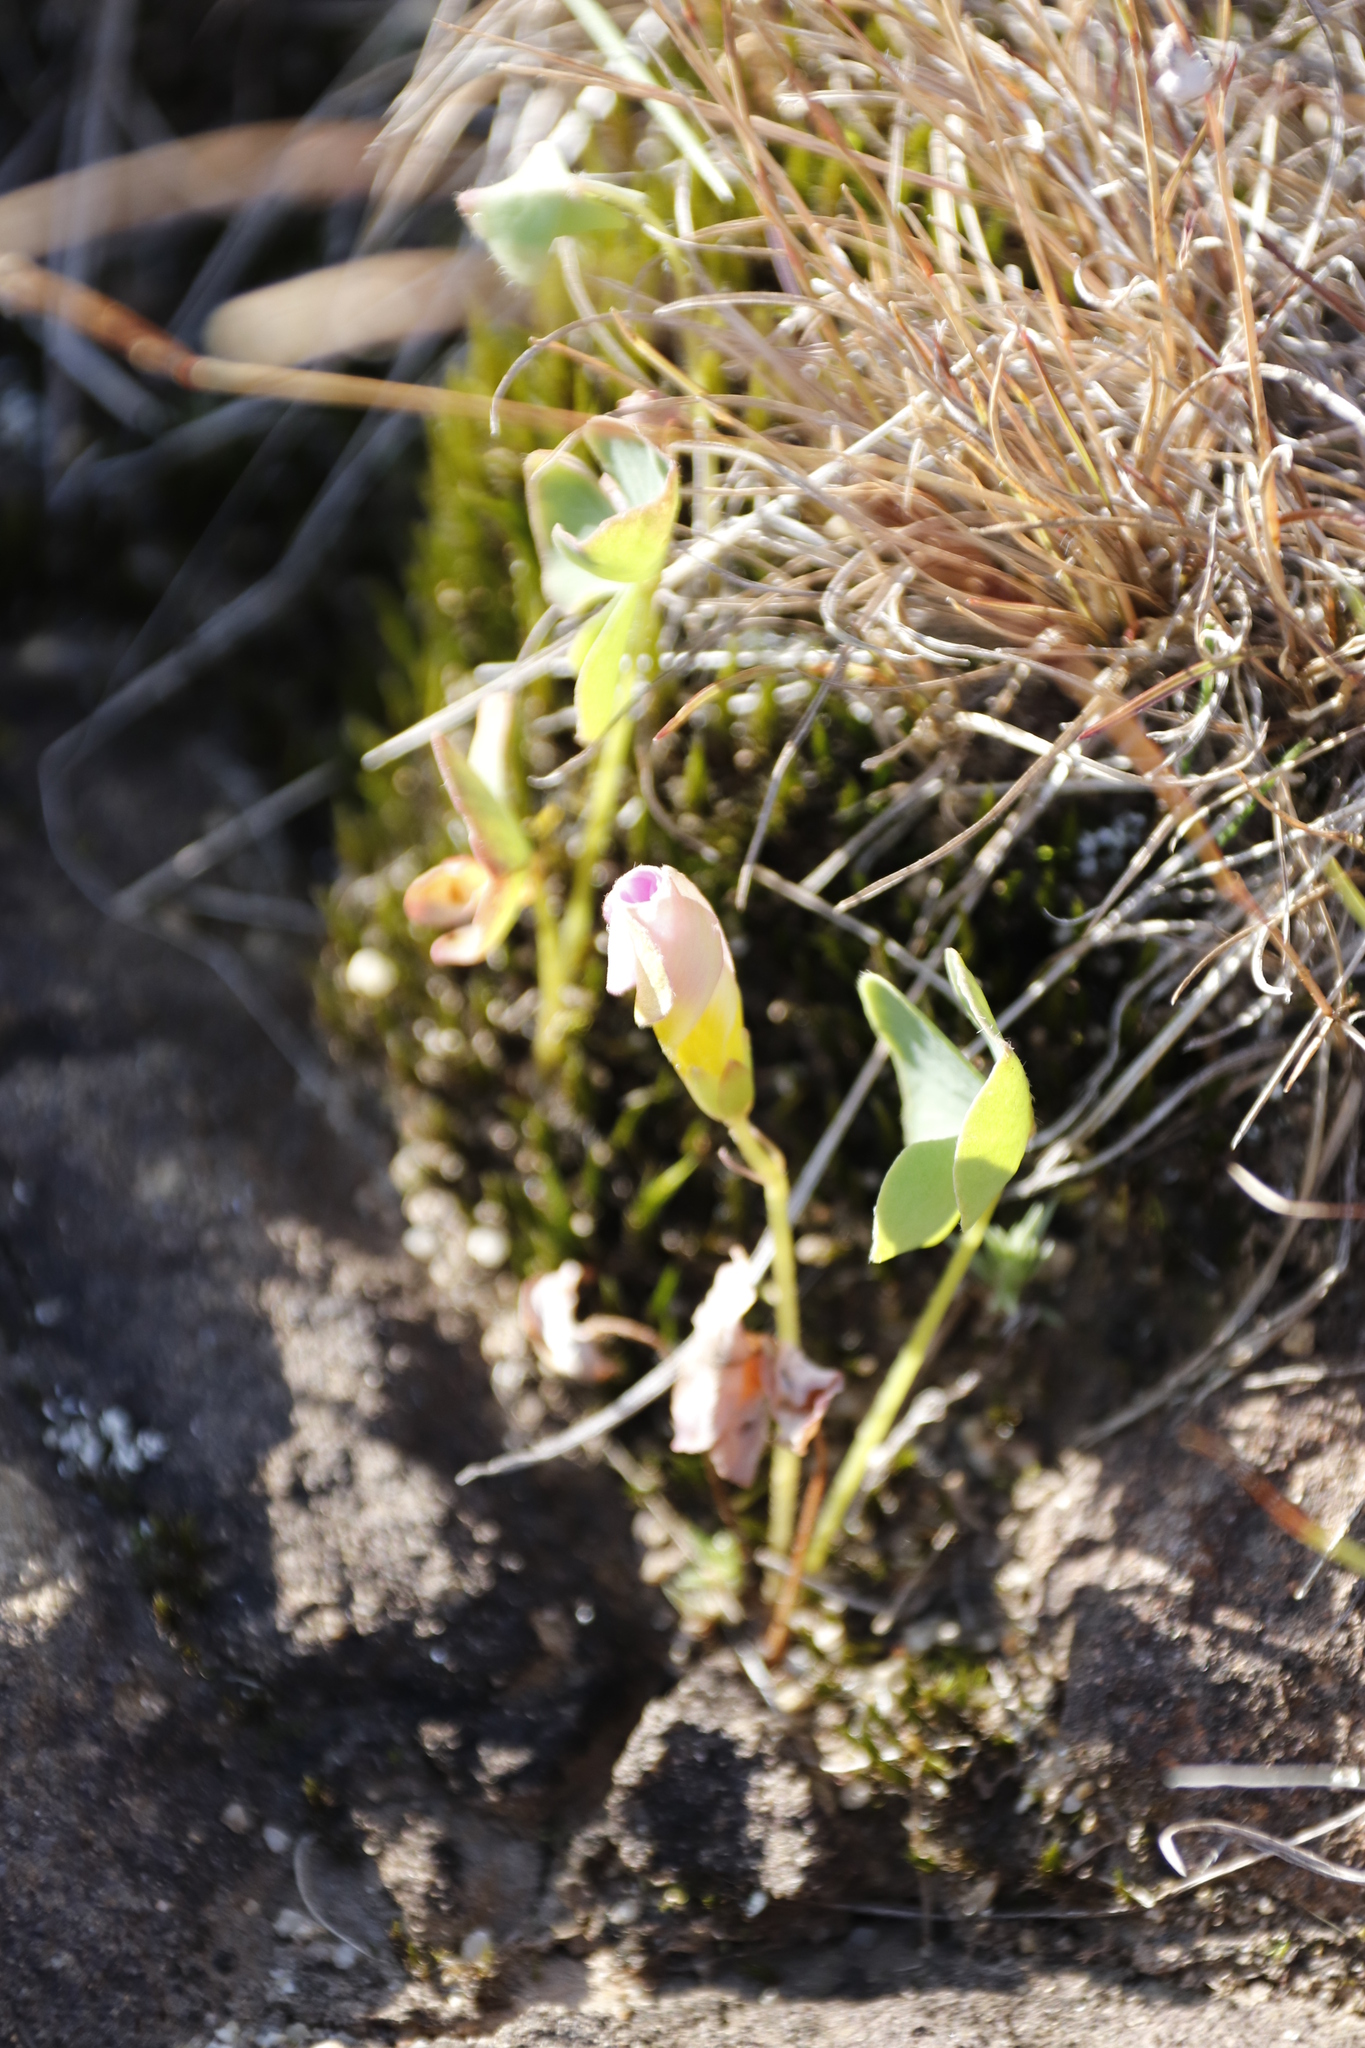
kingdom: Plantae
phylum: Tracheophyta
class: Magnoliopsida
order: Oxalidales
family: Oxalidaceae
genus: Oxalis
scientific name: Oxalis obliquifolia
